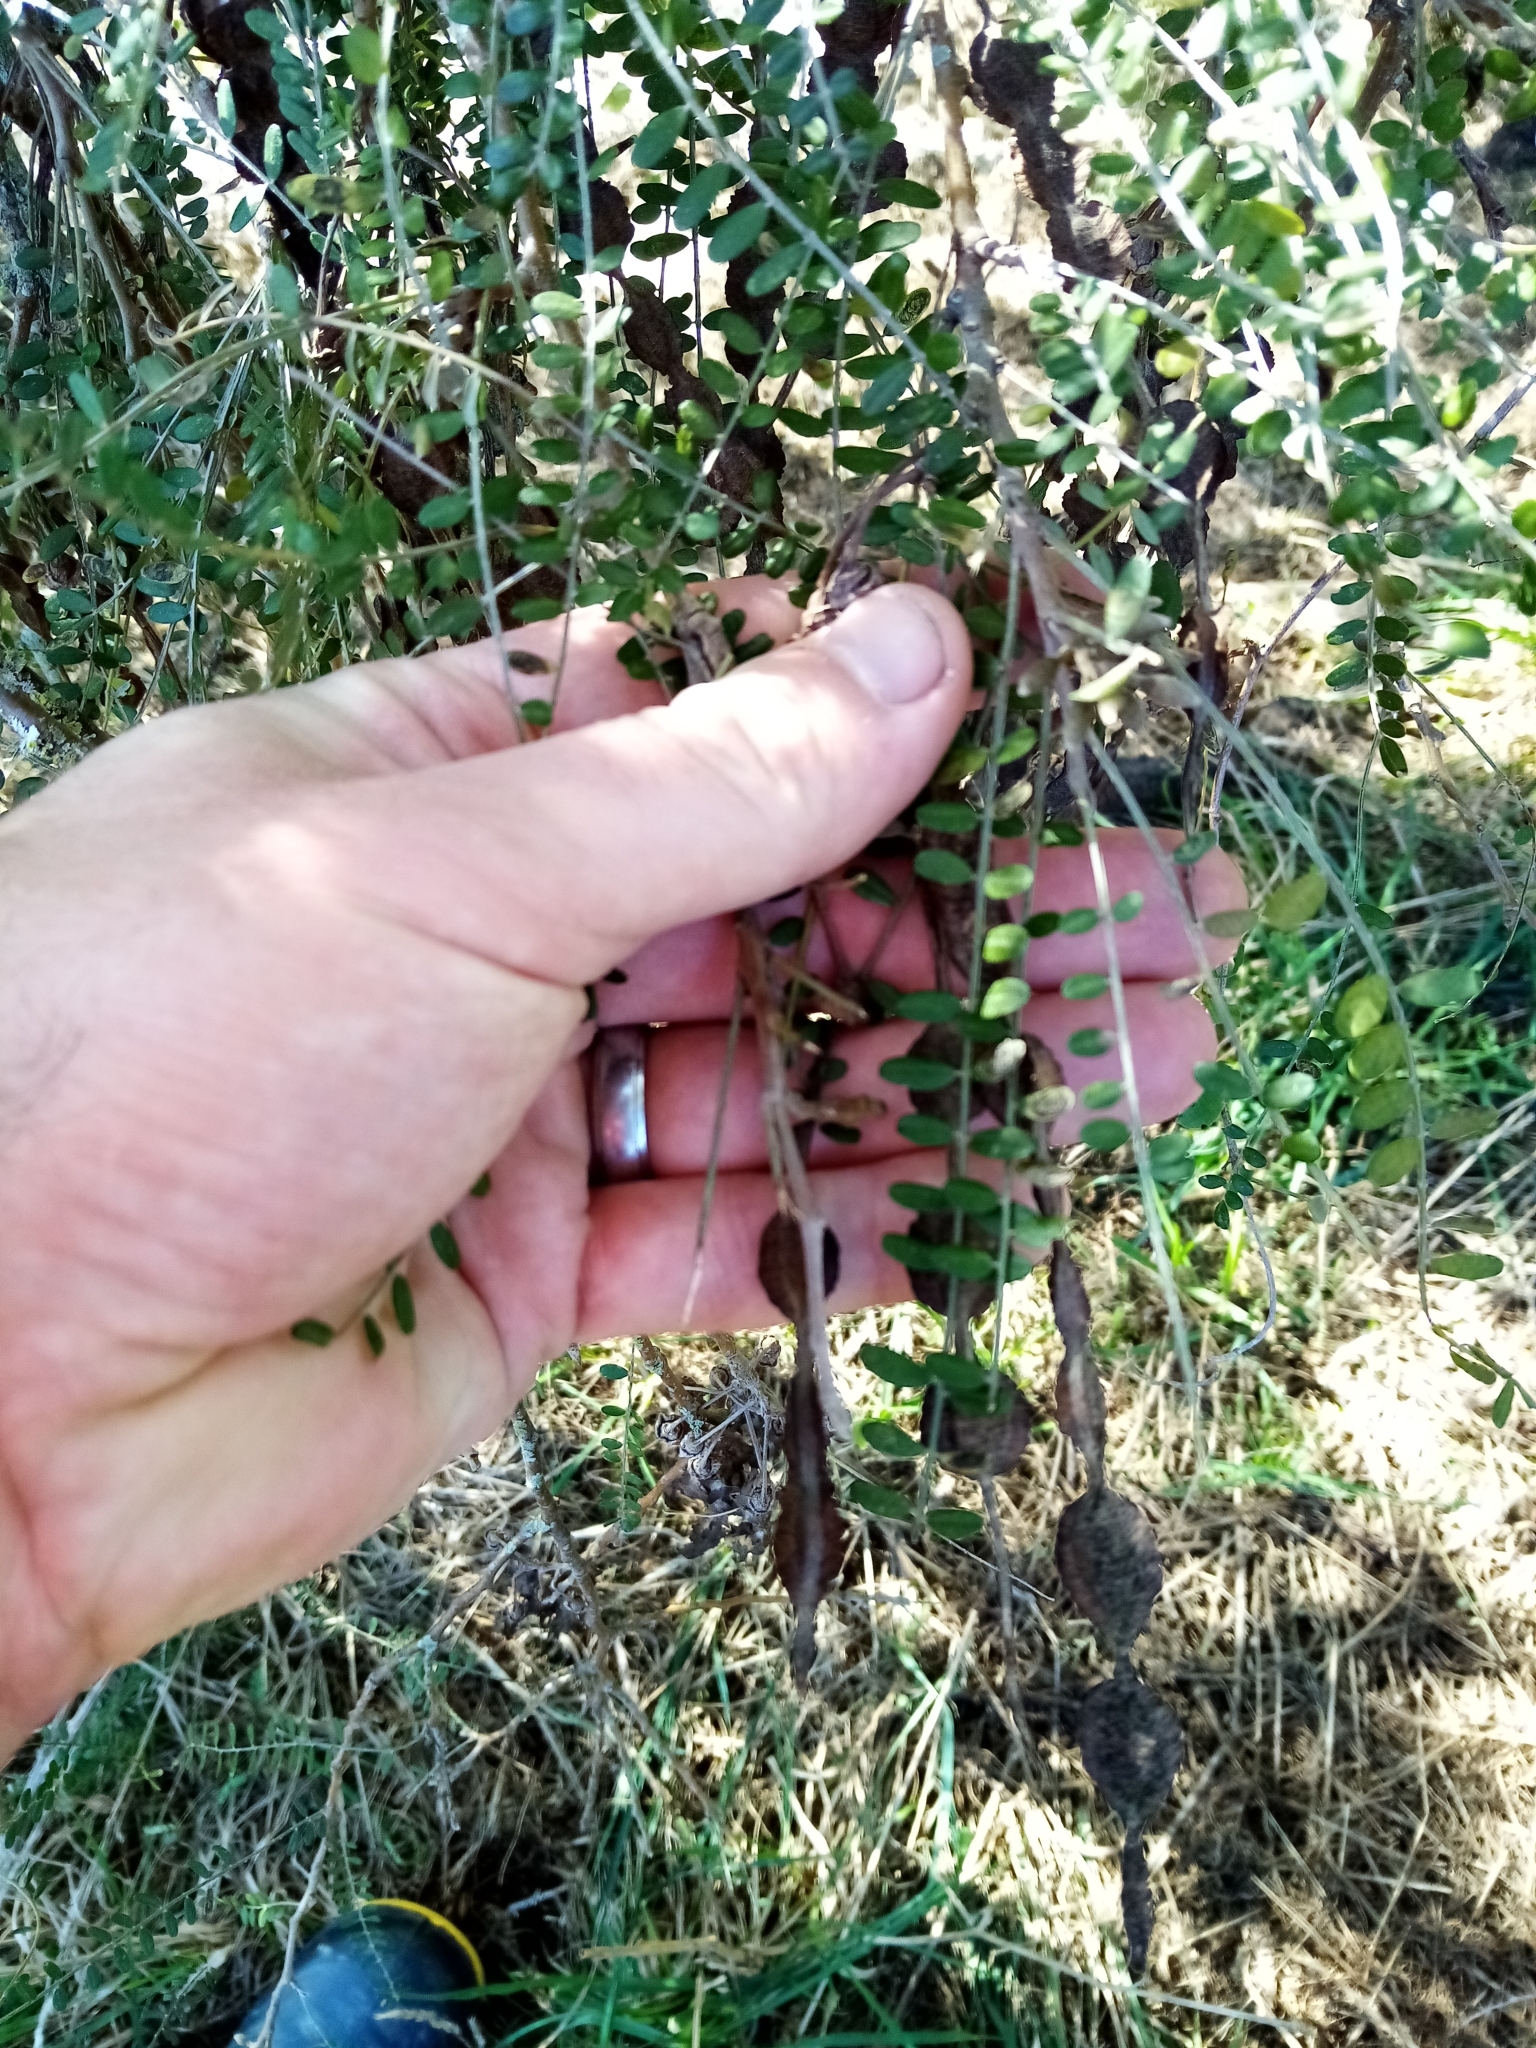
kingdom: Plantae
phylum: Tracheophyta
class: Magnoliopsida
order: Fabales
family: Fabaceae
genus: Sophora
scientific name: Sophora microphylla
